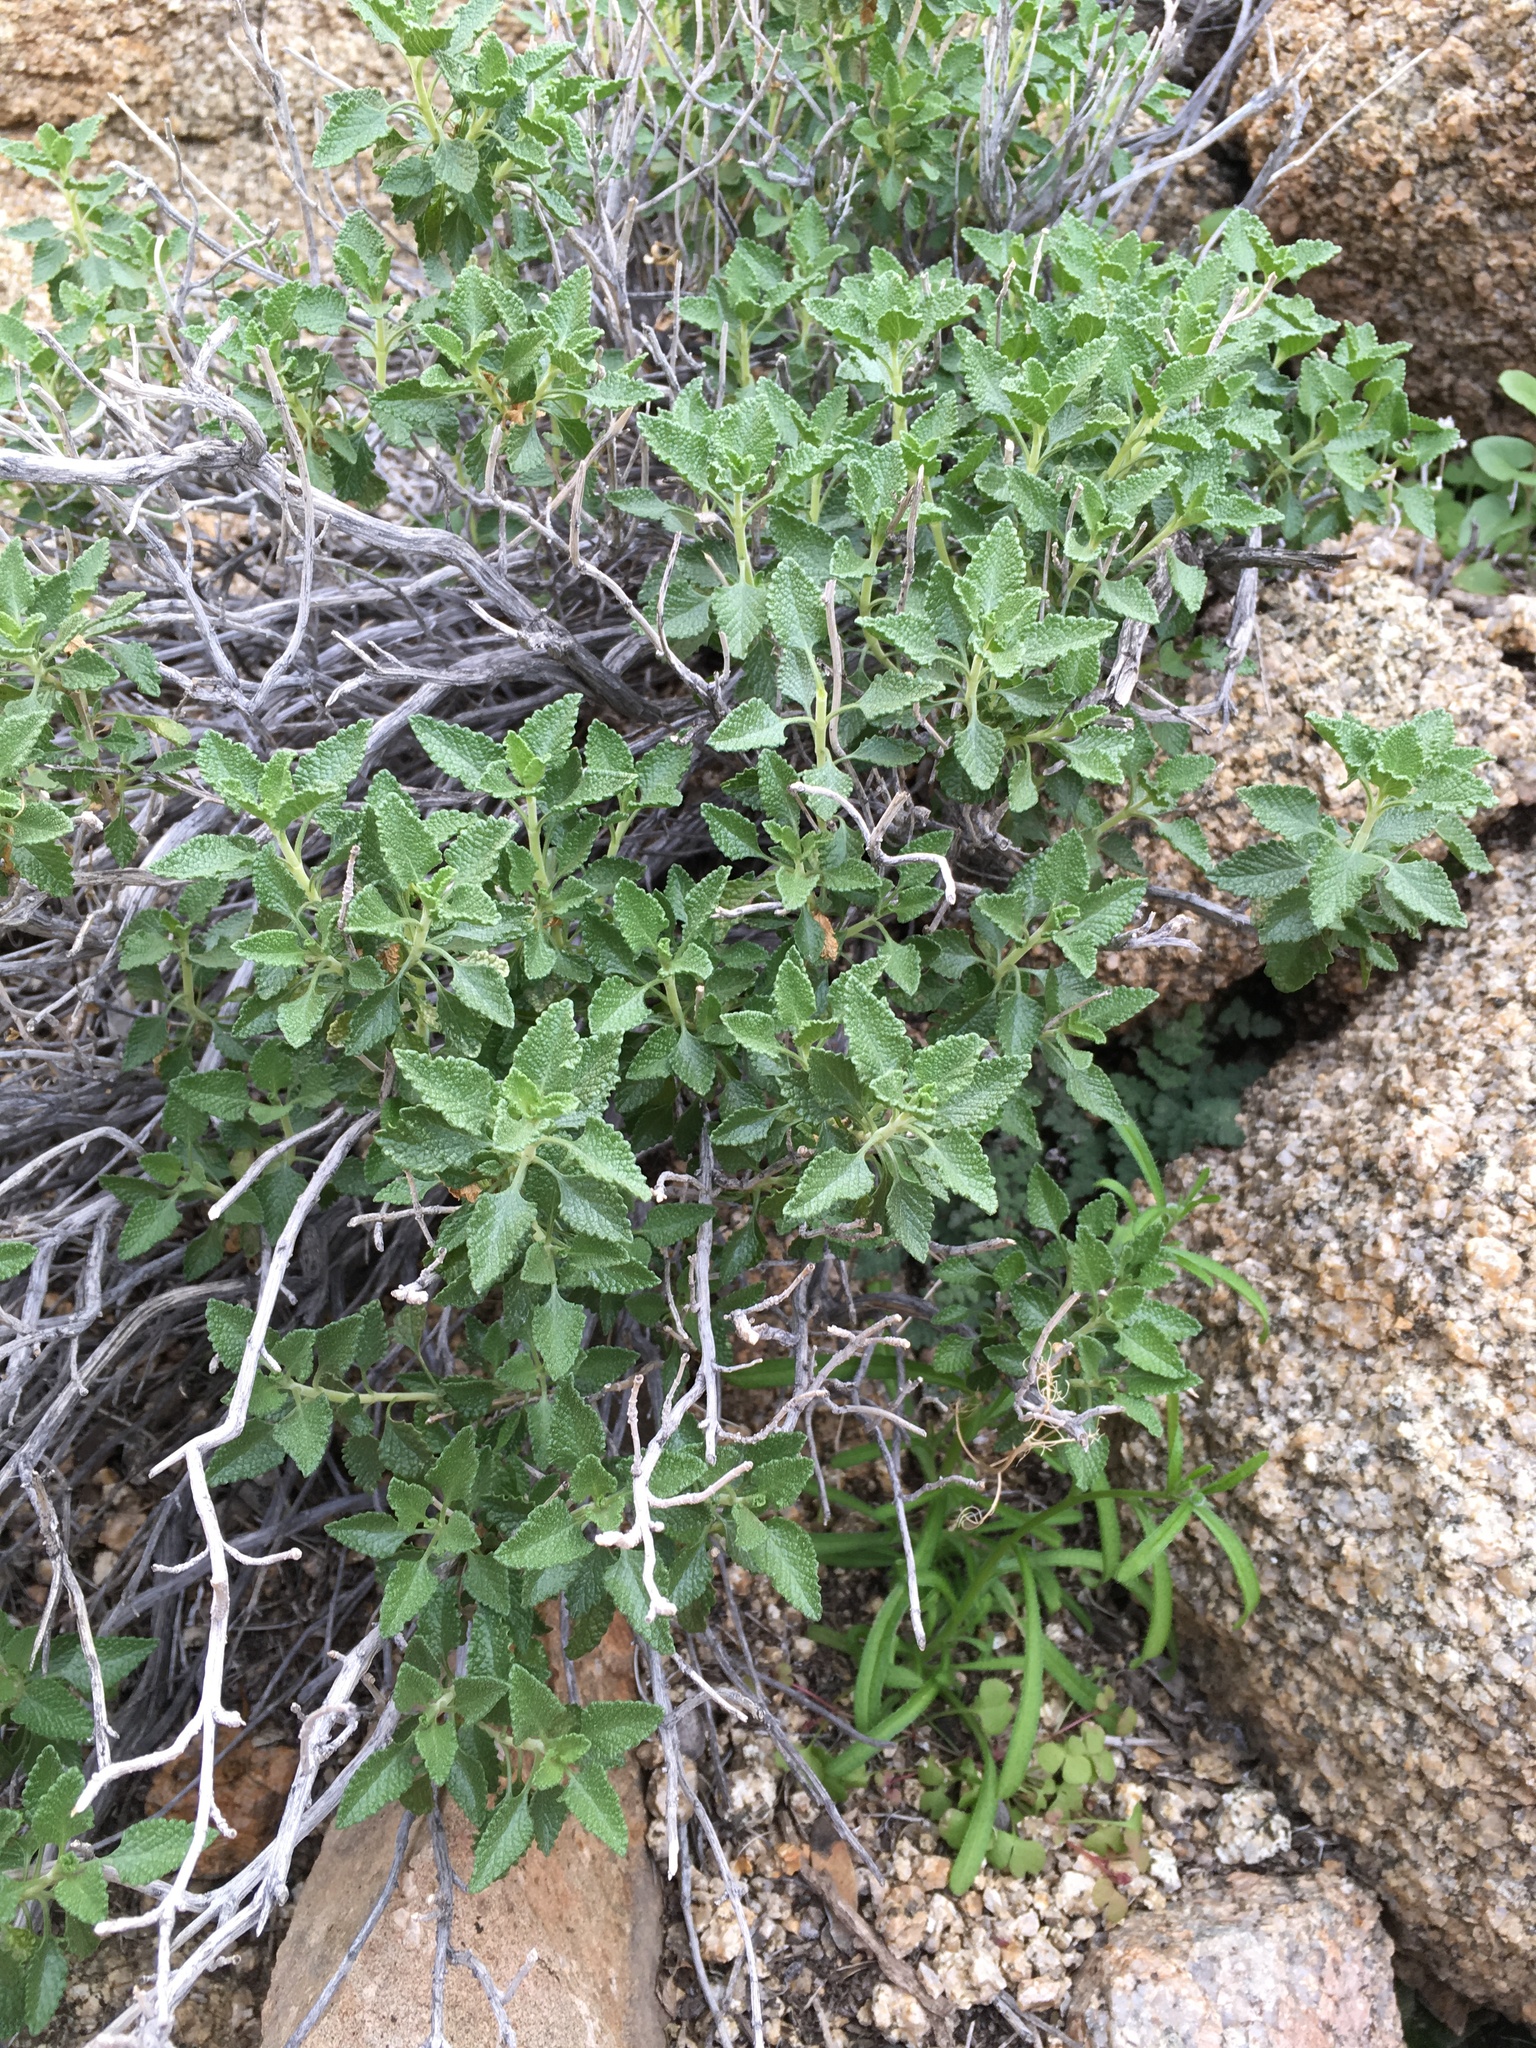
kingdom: Plantae
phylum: Tracheophyta
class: Magnoliopsida
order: Lamiales
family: Lamiaceae
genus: Salvia
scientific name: Salvia mohavensis
